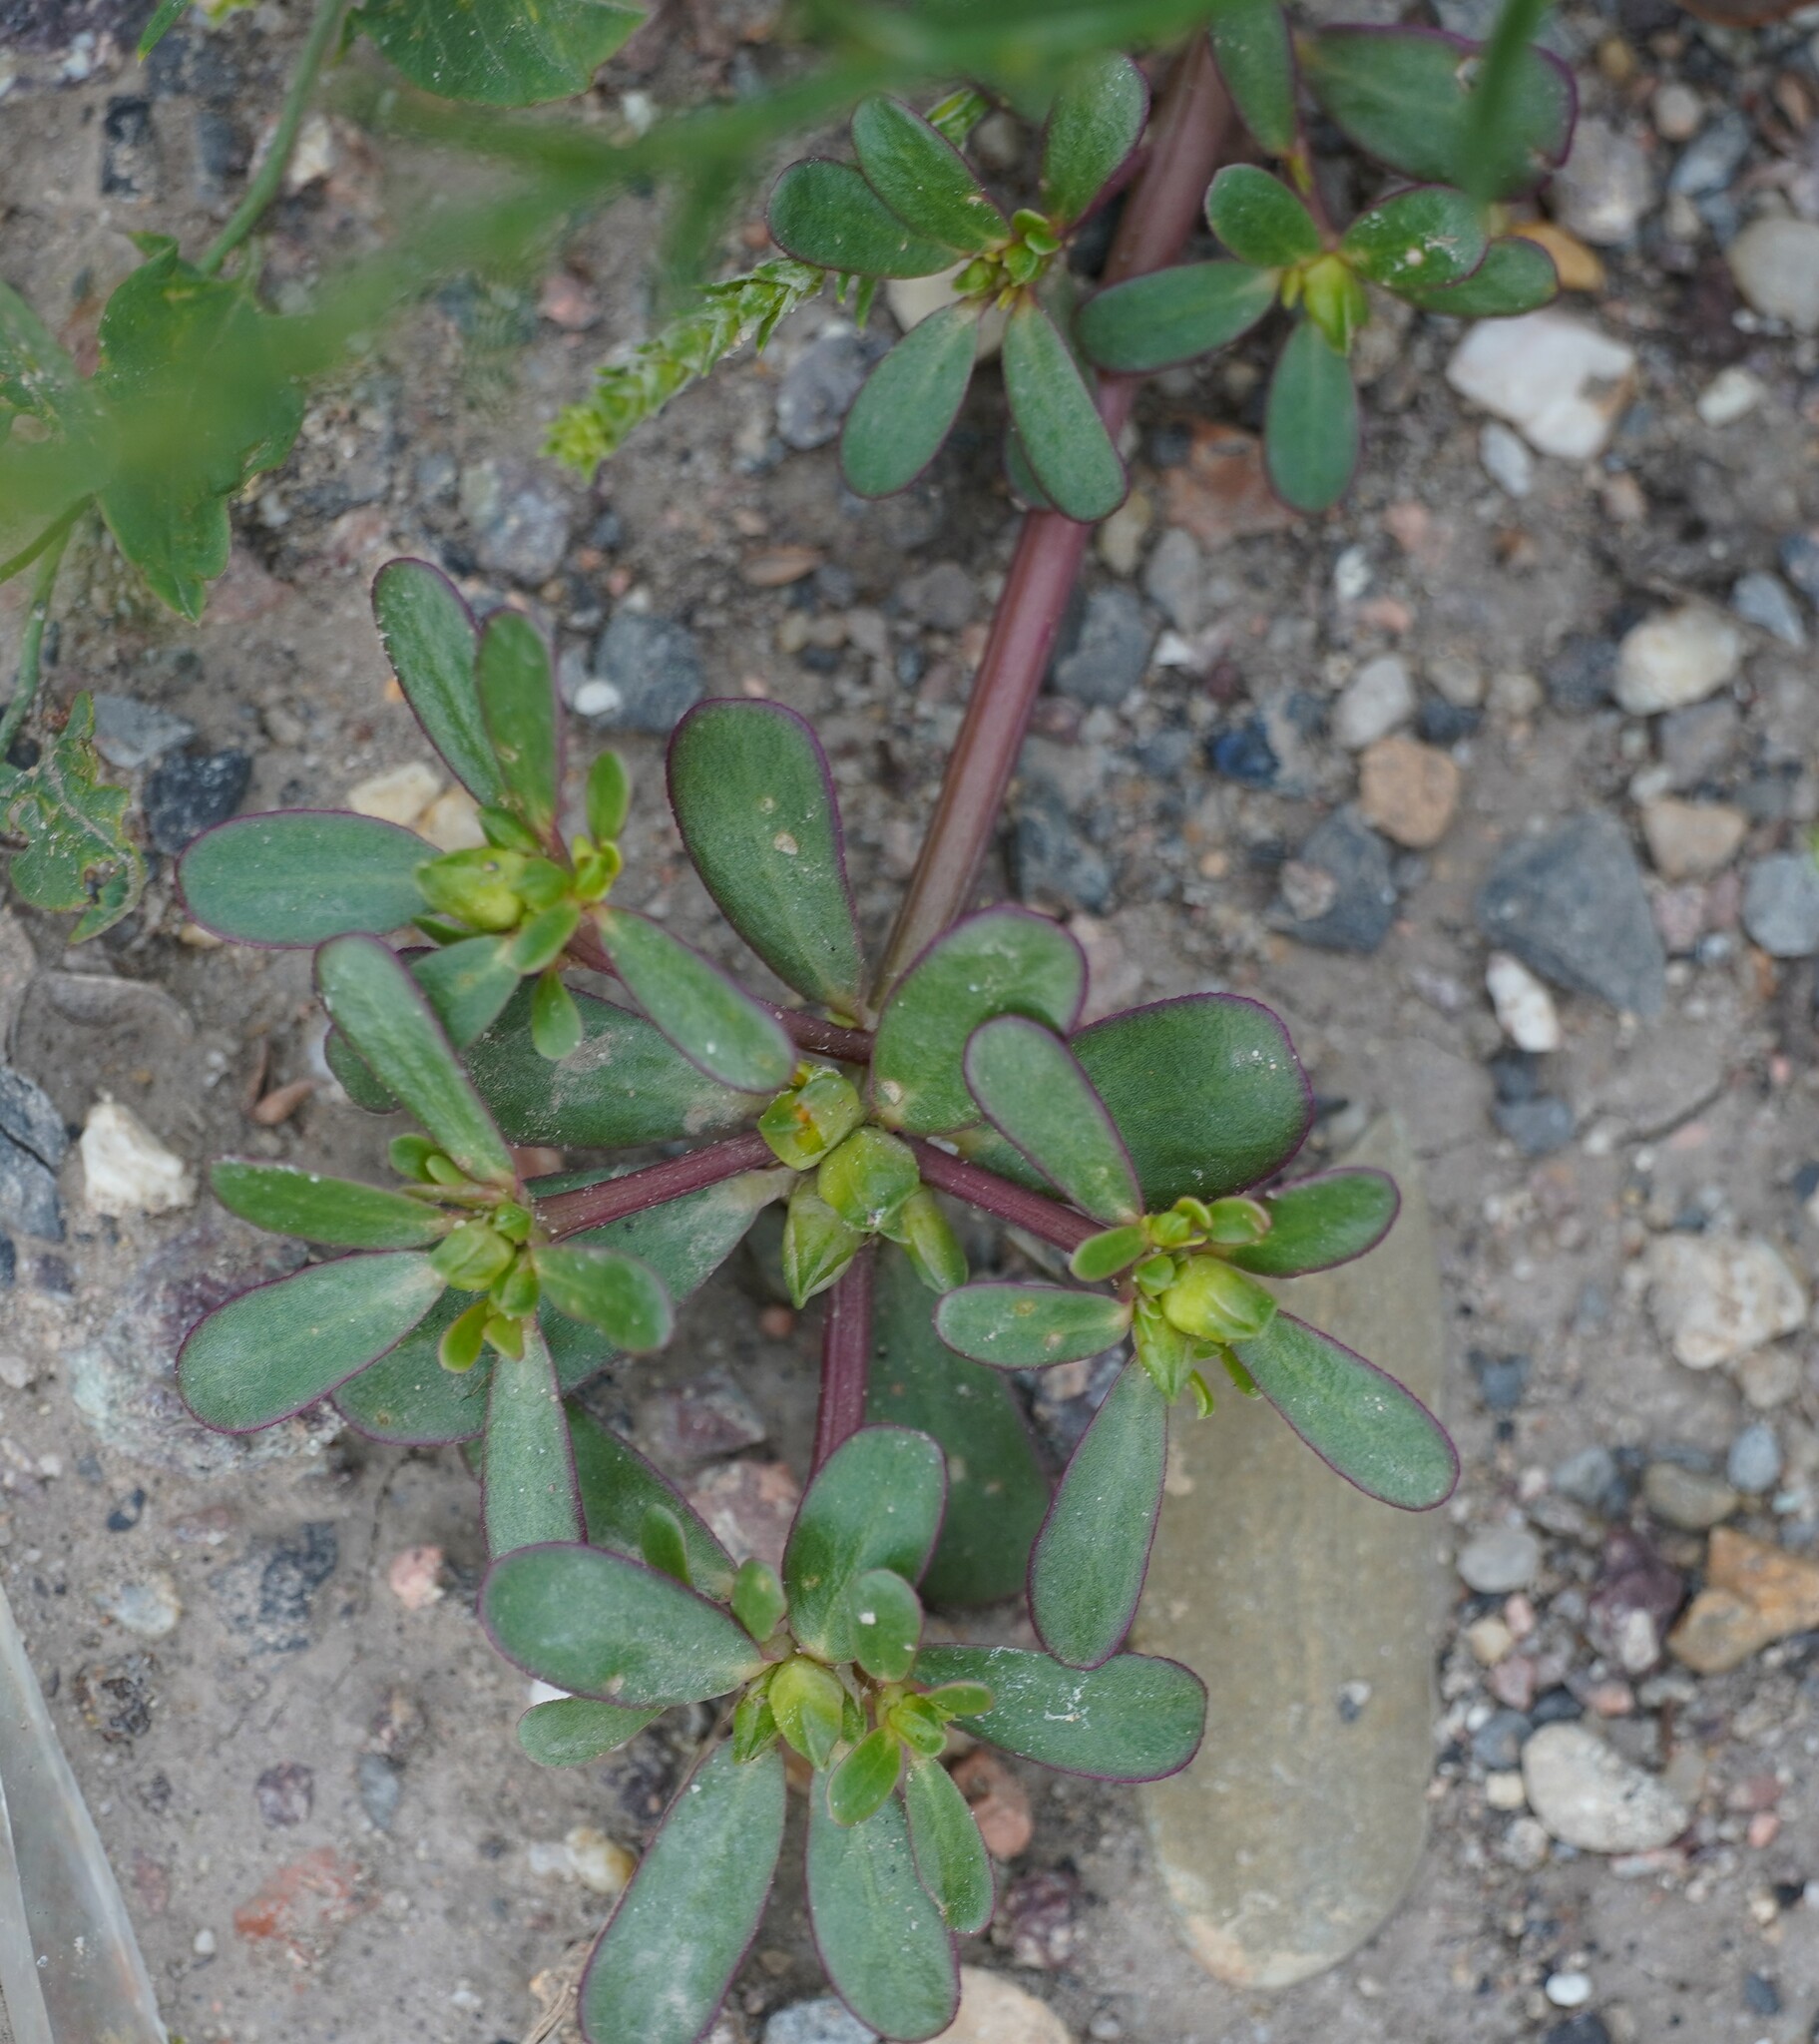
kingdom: Plantae
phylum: Tracheophyta
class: Magnoliopsida
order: Caryophyllales
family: Portulacaceae
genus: Portulaca
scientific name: Portulaca oleracea
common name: Common purslane
